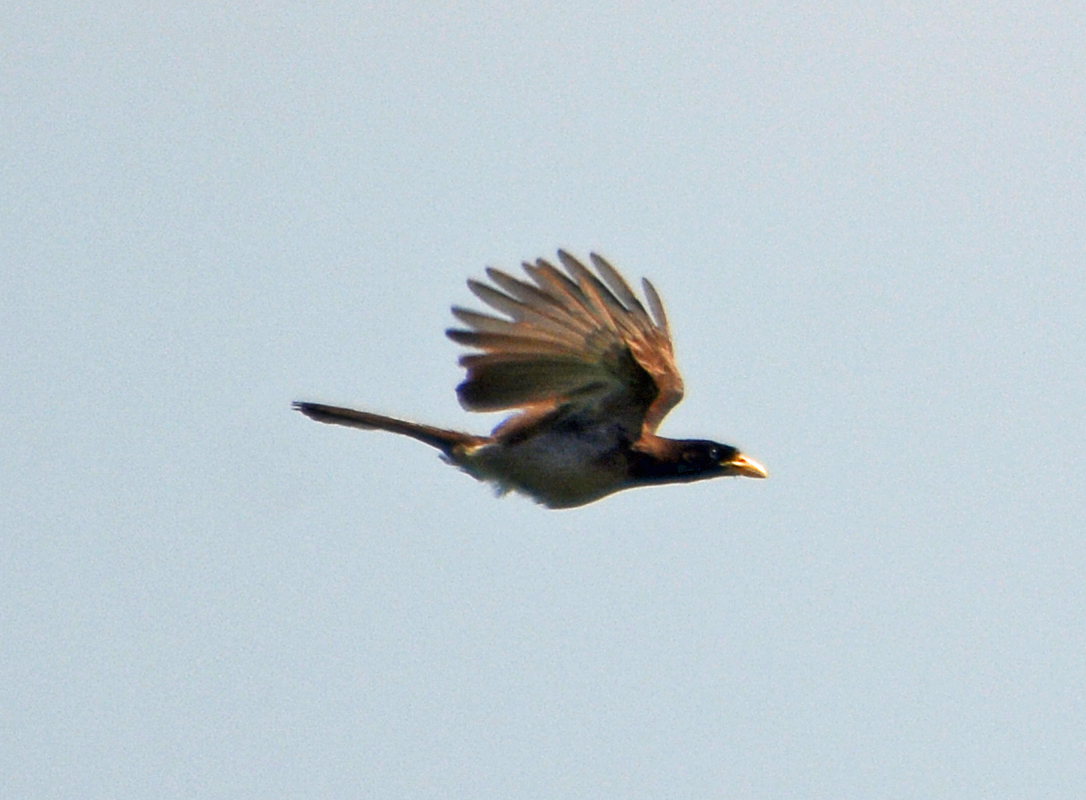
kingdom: Animalia
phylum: Chordata
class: Aves
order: Passeriformes
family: Corvidae
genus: Psilorhinus
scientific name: Psilorhinus morio
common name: Brown jay
